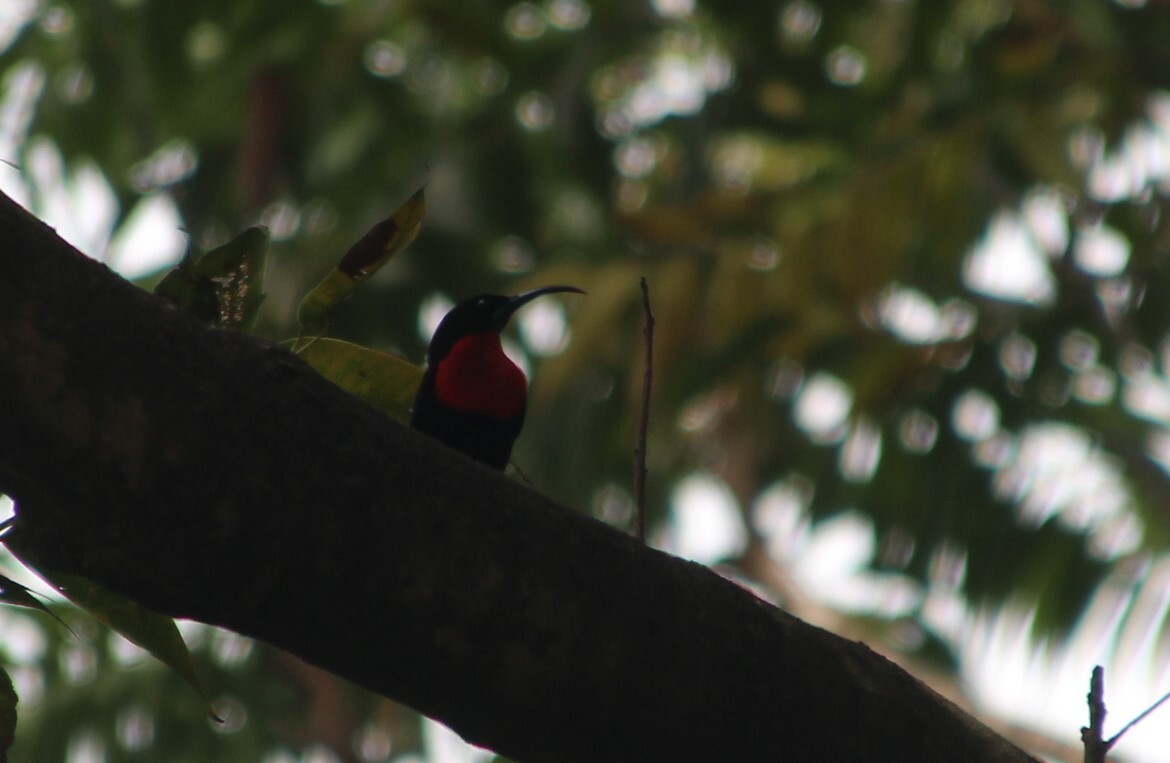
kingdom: Animalia
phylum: Chordata
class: Aves
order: Passeriformes
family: Nectariniidae
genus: Chalcomitra
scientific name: Chalcomitra senegalensis
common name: Scarlet-chested sunbird
